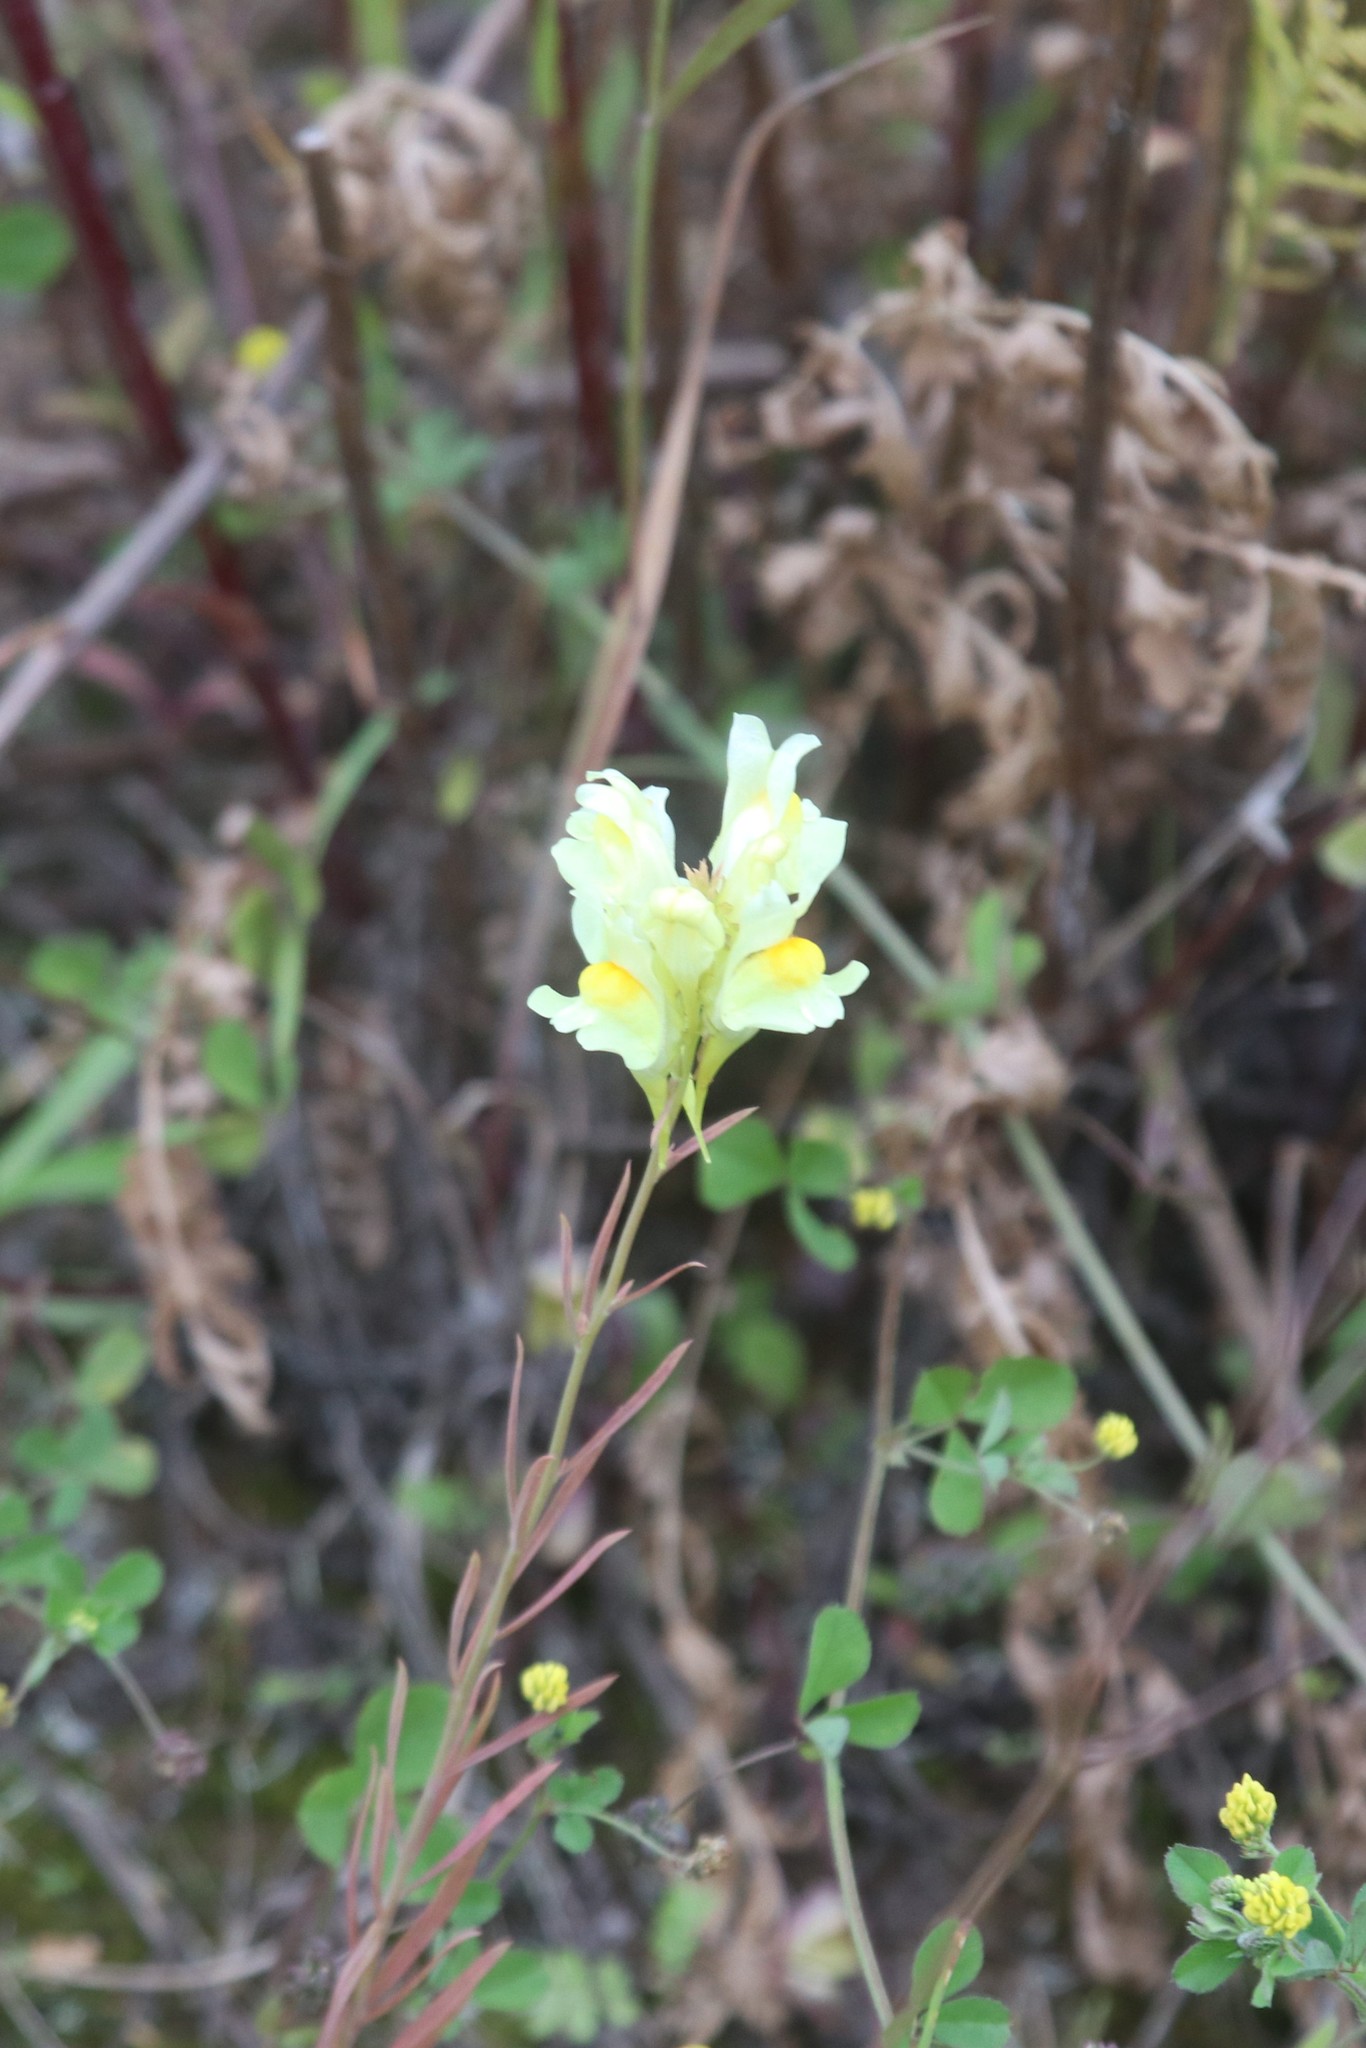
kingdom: Plantae
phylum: Tracheophyta
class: Magnoliopsida
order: Lamiales
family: Plantaginaceae
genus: Linaria
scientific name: Linaria vulgaris
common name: Butter and eggs
